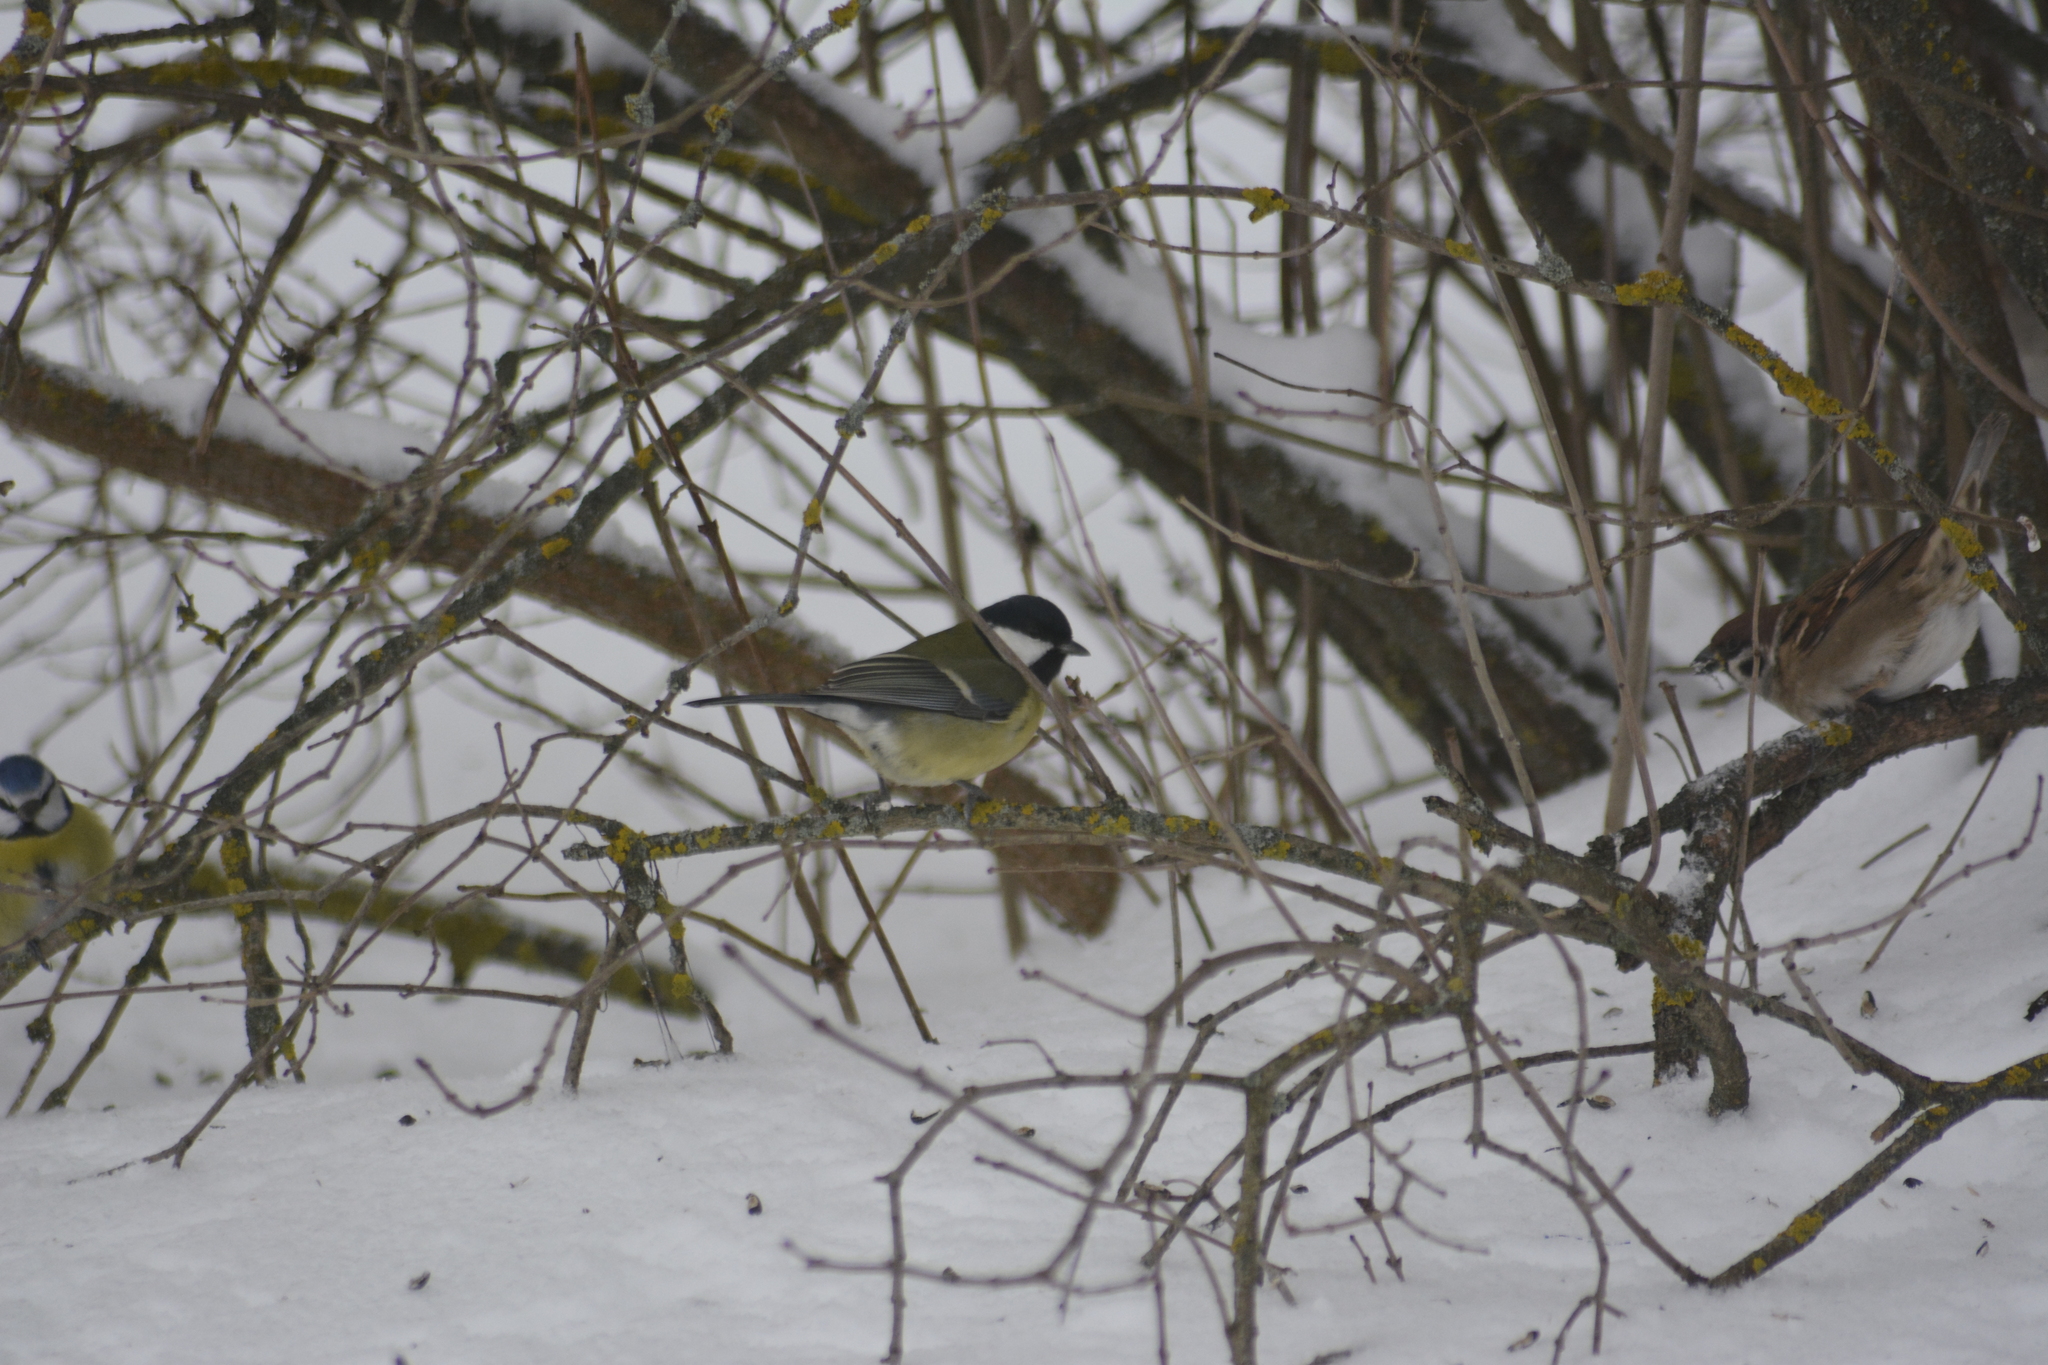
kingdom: Animalia
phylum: Chordata
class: Aves
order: Passeriformes
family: Paridae
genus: Parus
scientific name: Parus major
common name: Great tit
